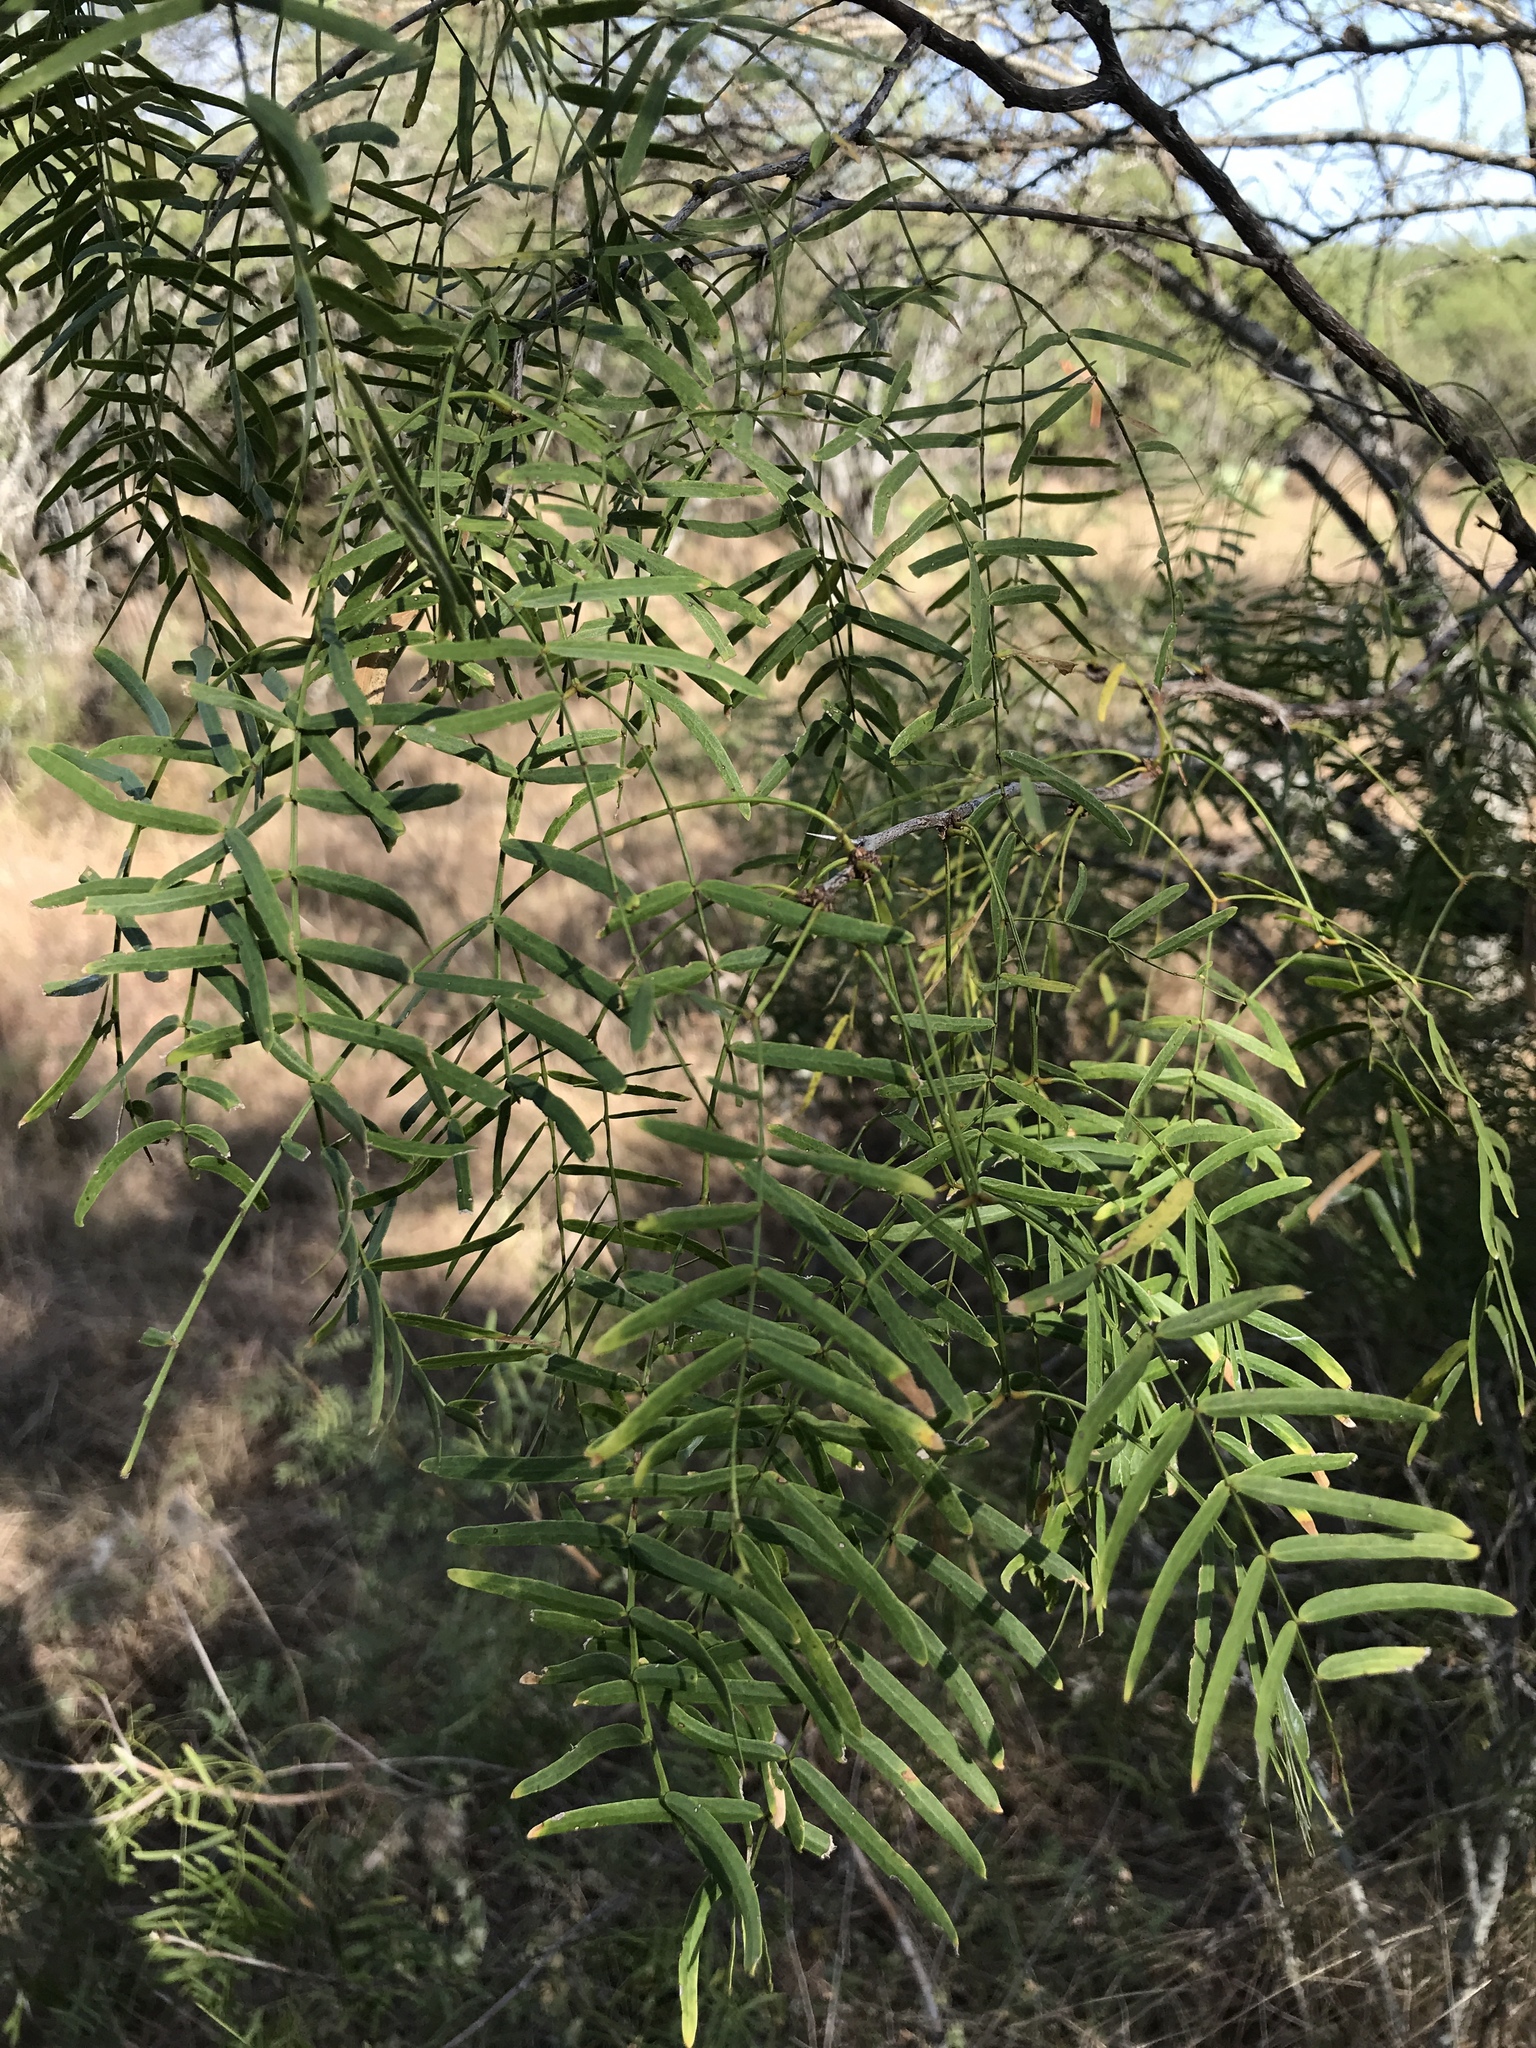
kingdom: Plantae
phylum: Tracheophyta
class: Magnoliopsida
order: Fabales
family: Fabaceae
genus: Prosopis
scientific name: Prosopis glandulosa
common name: Honey mesquite
